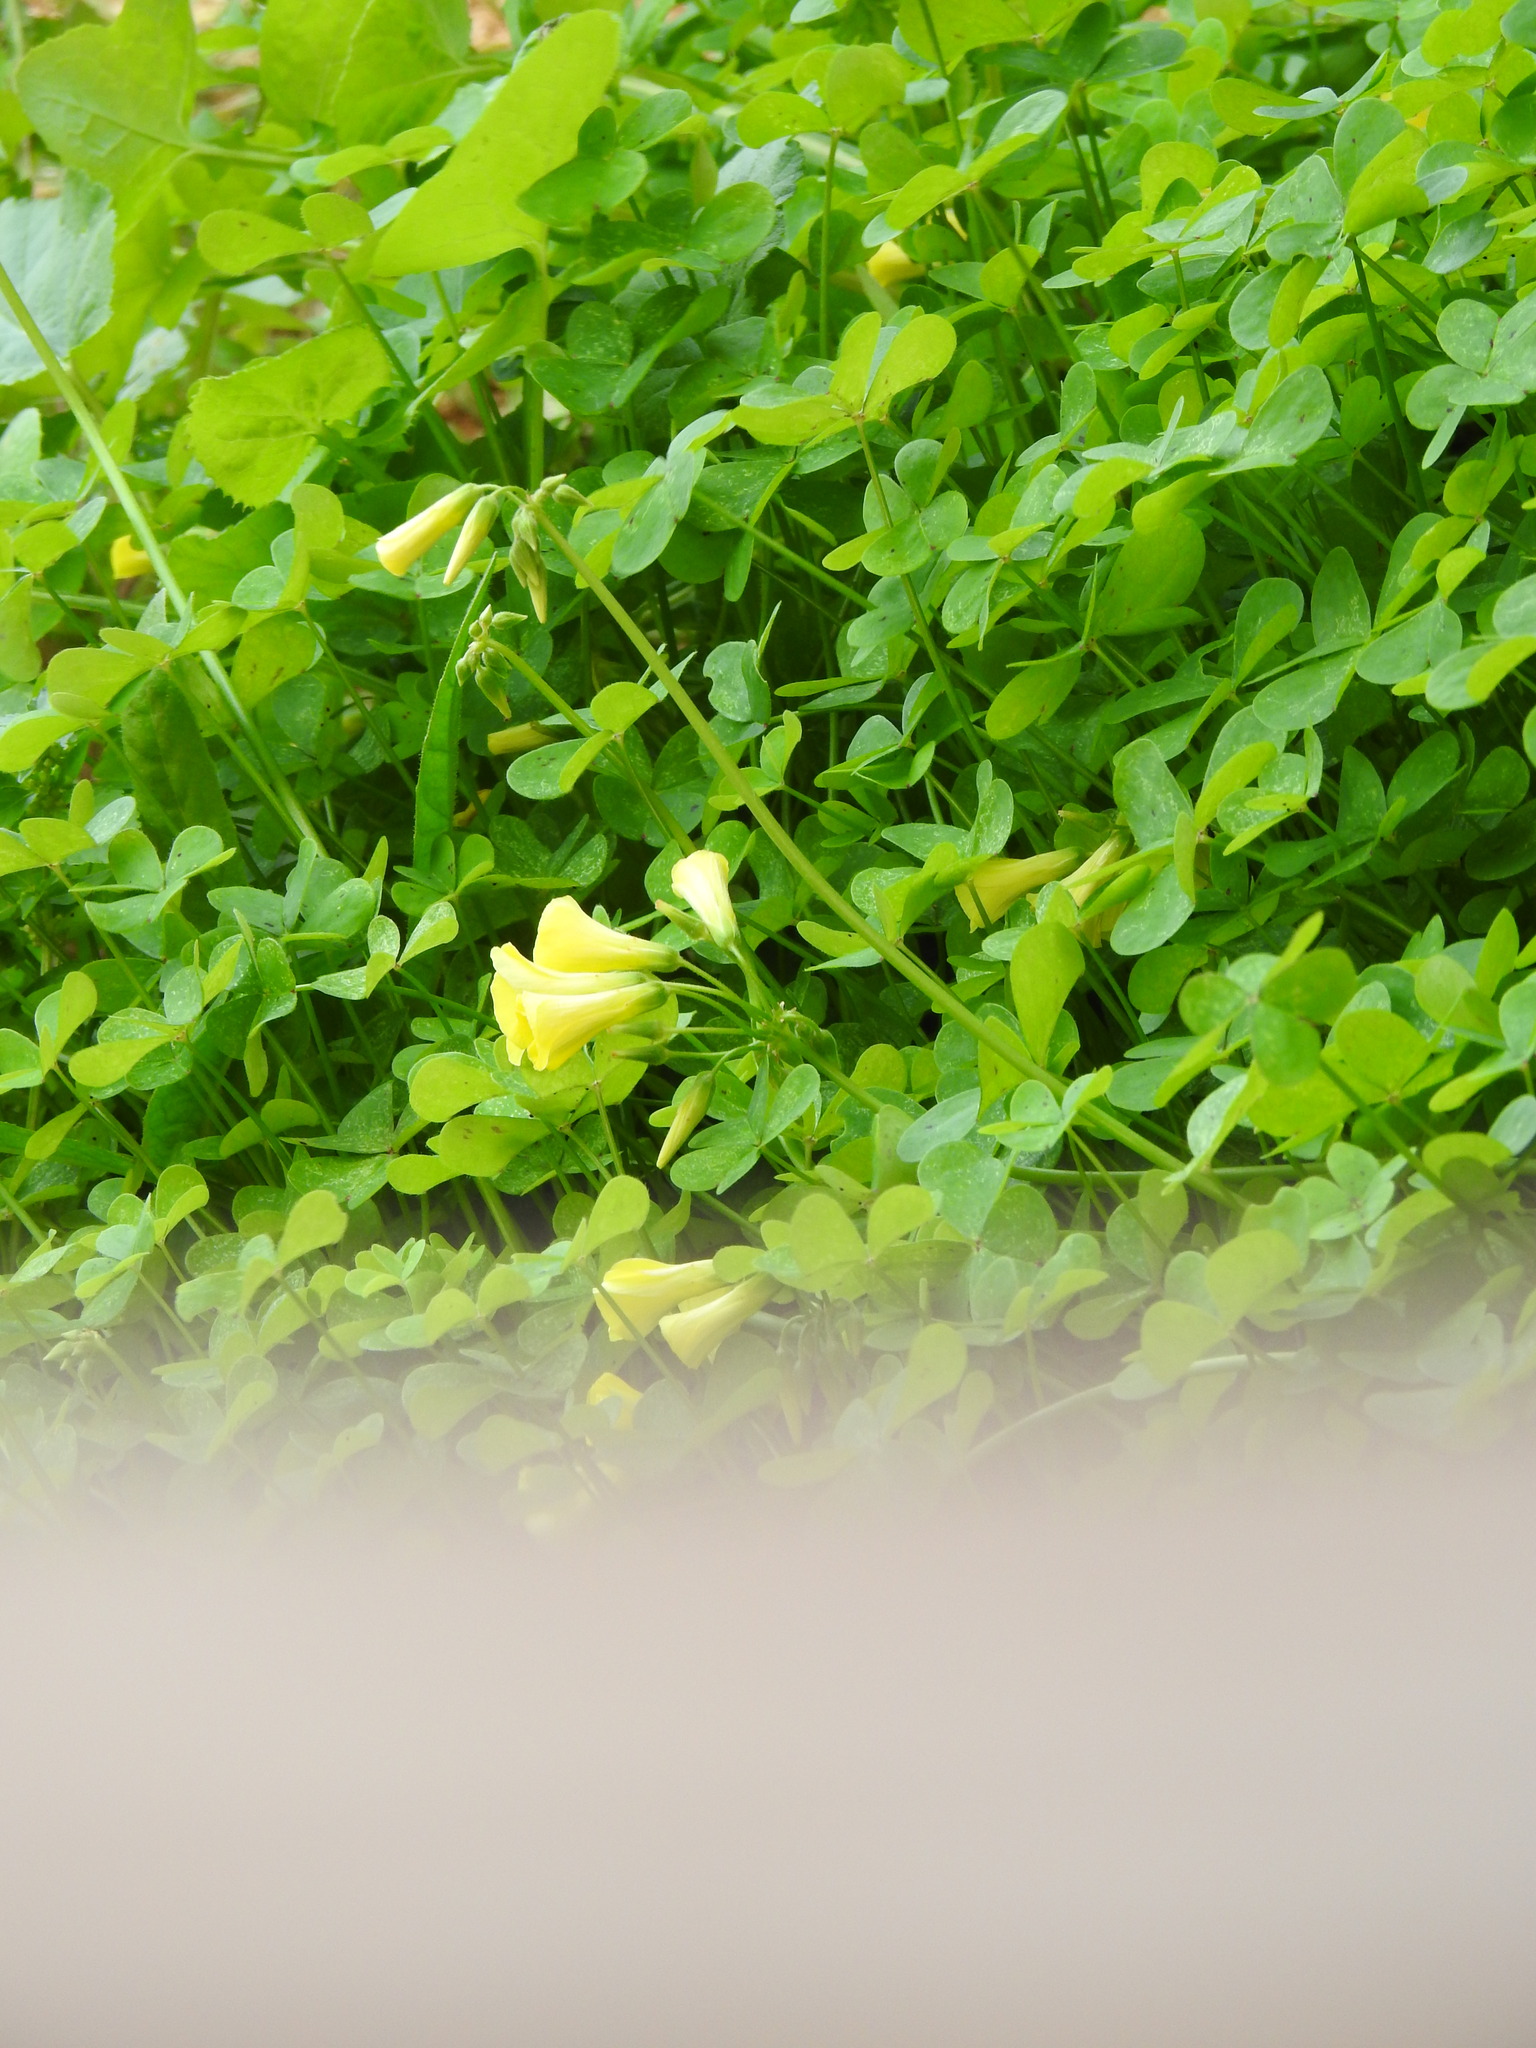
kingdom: Plantae
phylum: Tracheophyta
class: Magnoliopsida
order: Oxalidales
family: Oxalidaceae
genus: Oxalis
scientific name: Oxalis pes-caprae
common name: Bermuda-buttercup
